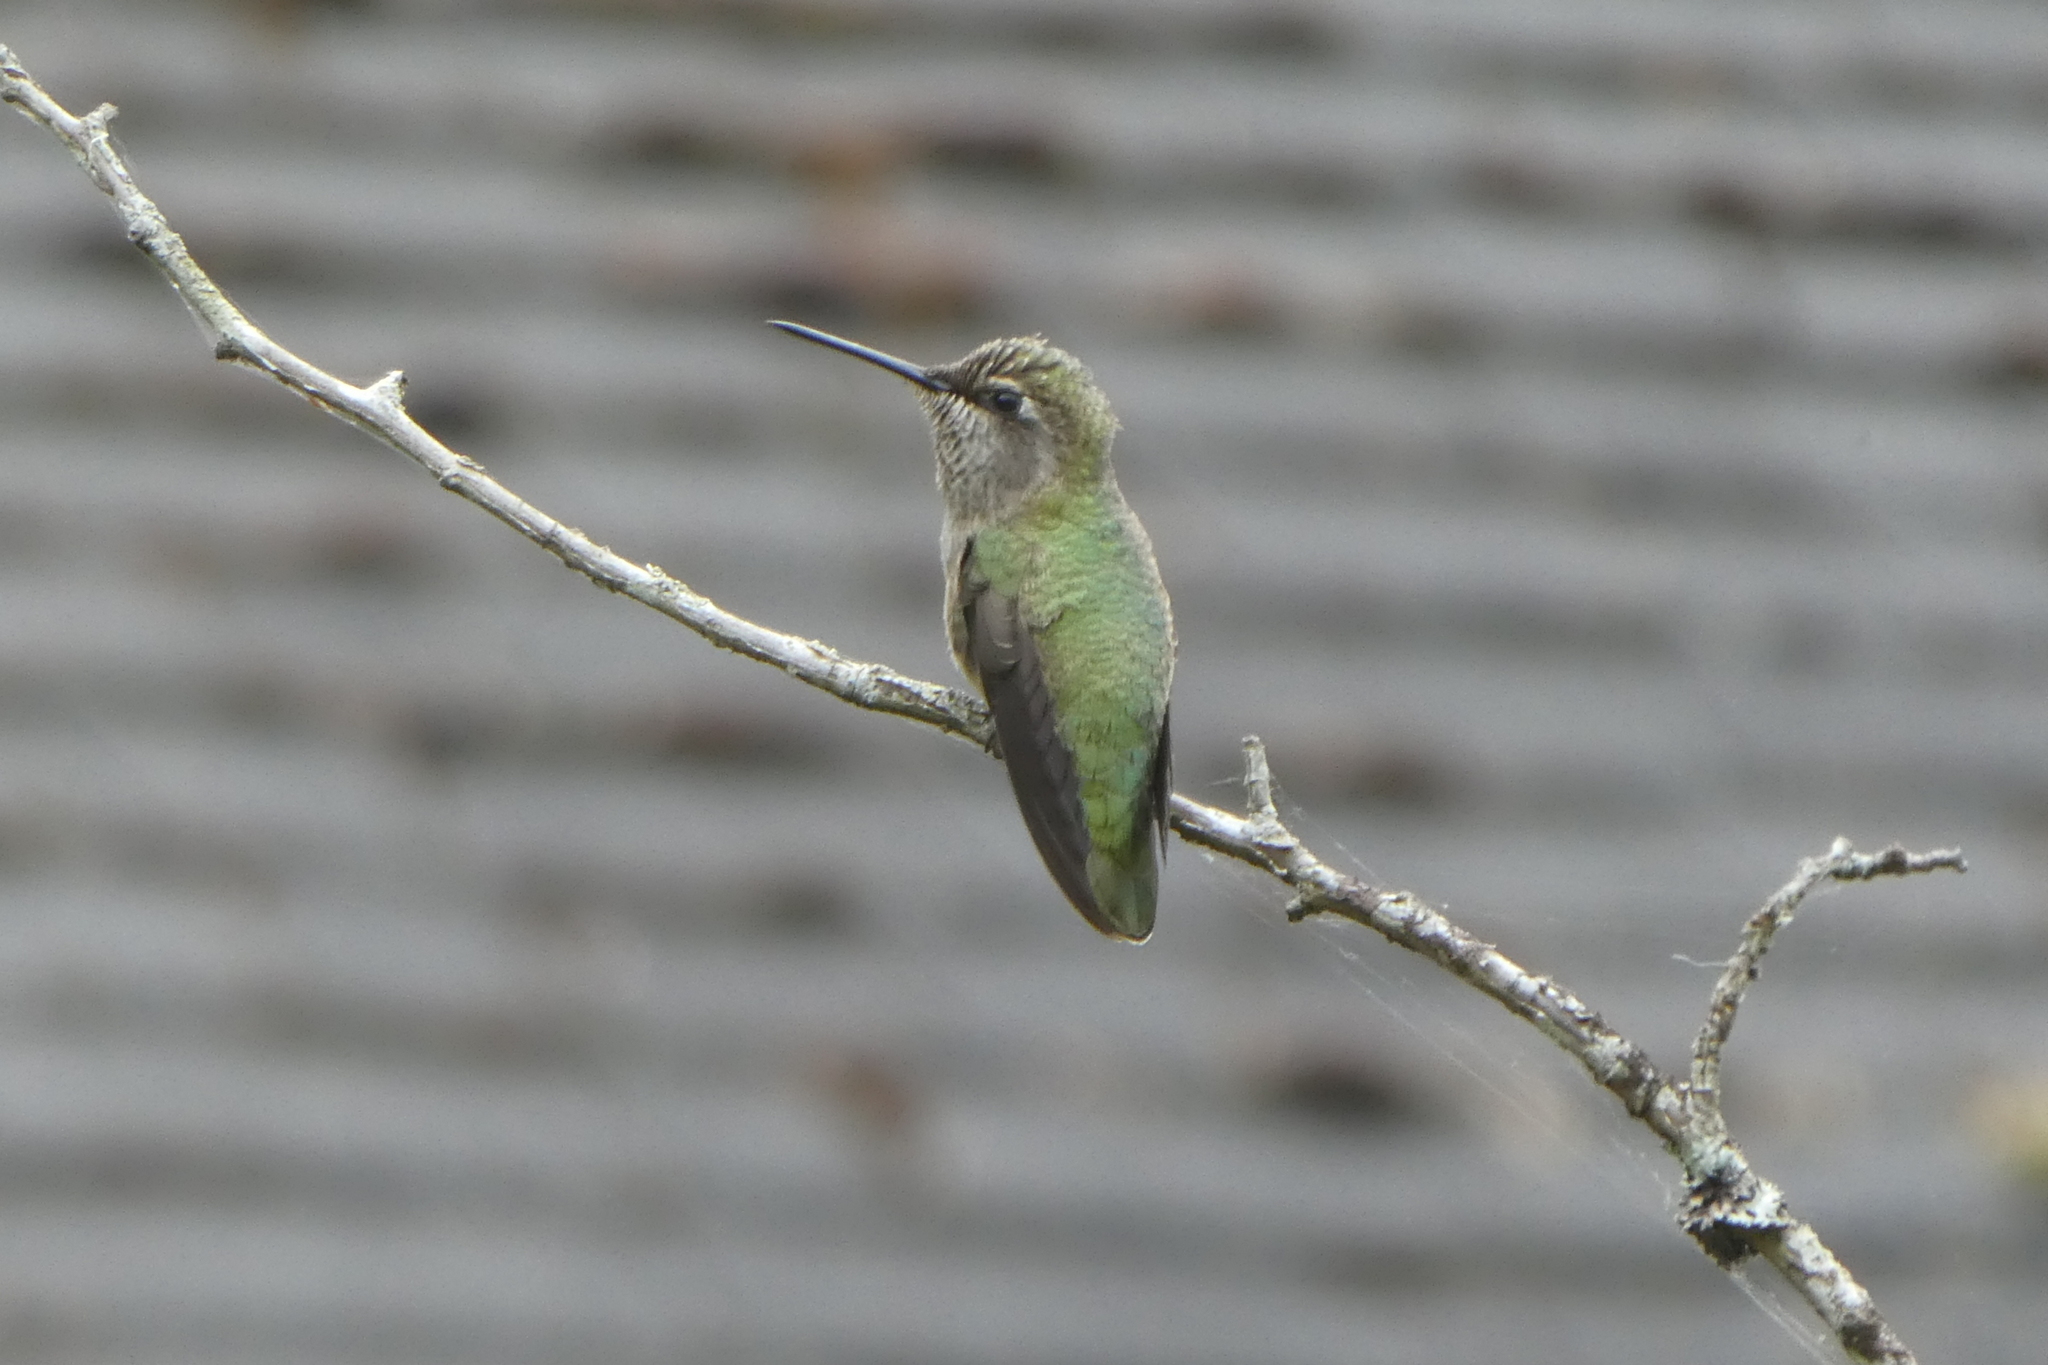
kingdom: Animalia
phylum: Chordata
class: Aves
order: Apodiformes
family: Trochilidae
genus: Calypte
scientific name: Calypte anna
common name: Anna's hummingbird
